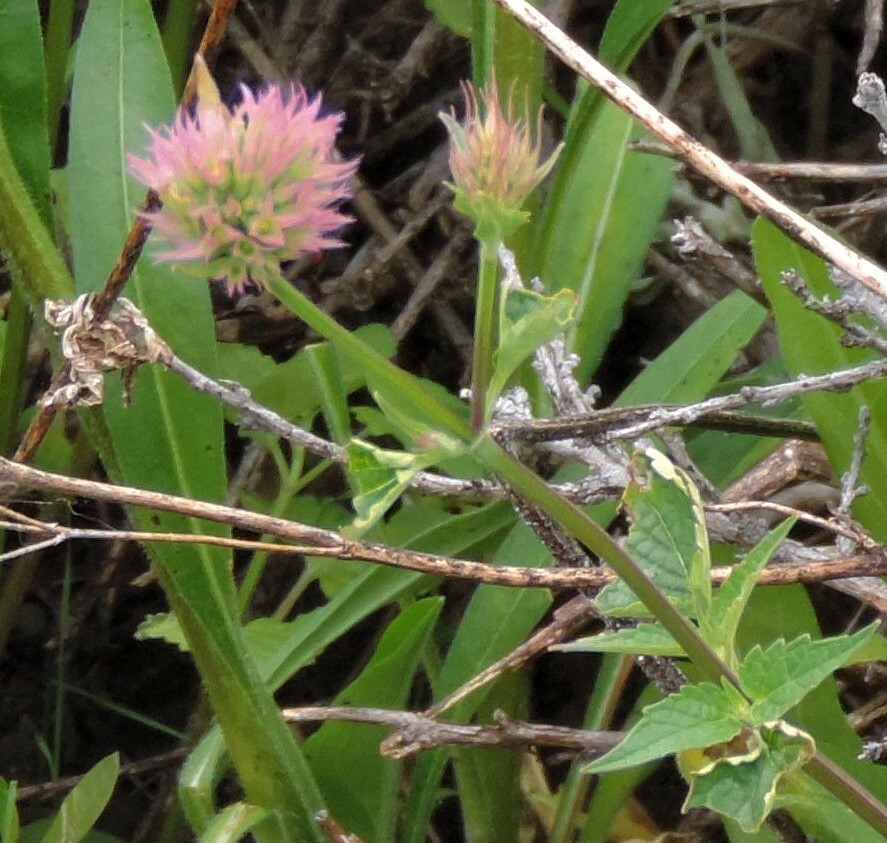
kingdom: Plantae
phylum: Tracheophyta
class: Magnoliopsida
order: Lamiales
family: Lamiaceae
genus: Agastache
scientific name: Agastache urticifolia
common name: Horsemint giant hyssop
